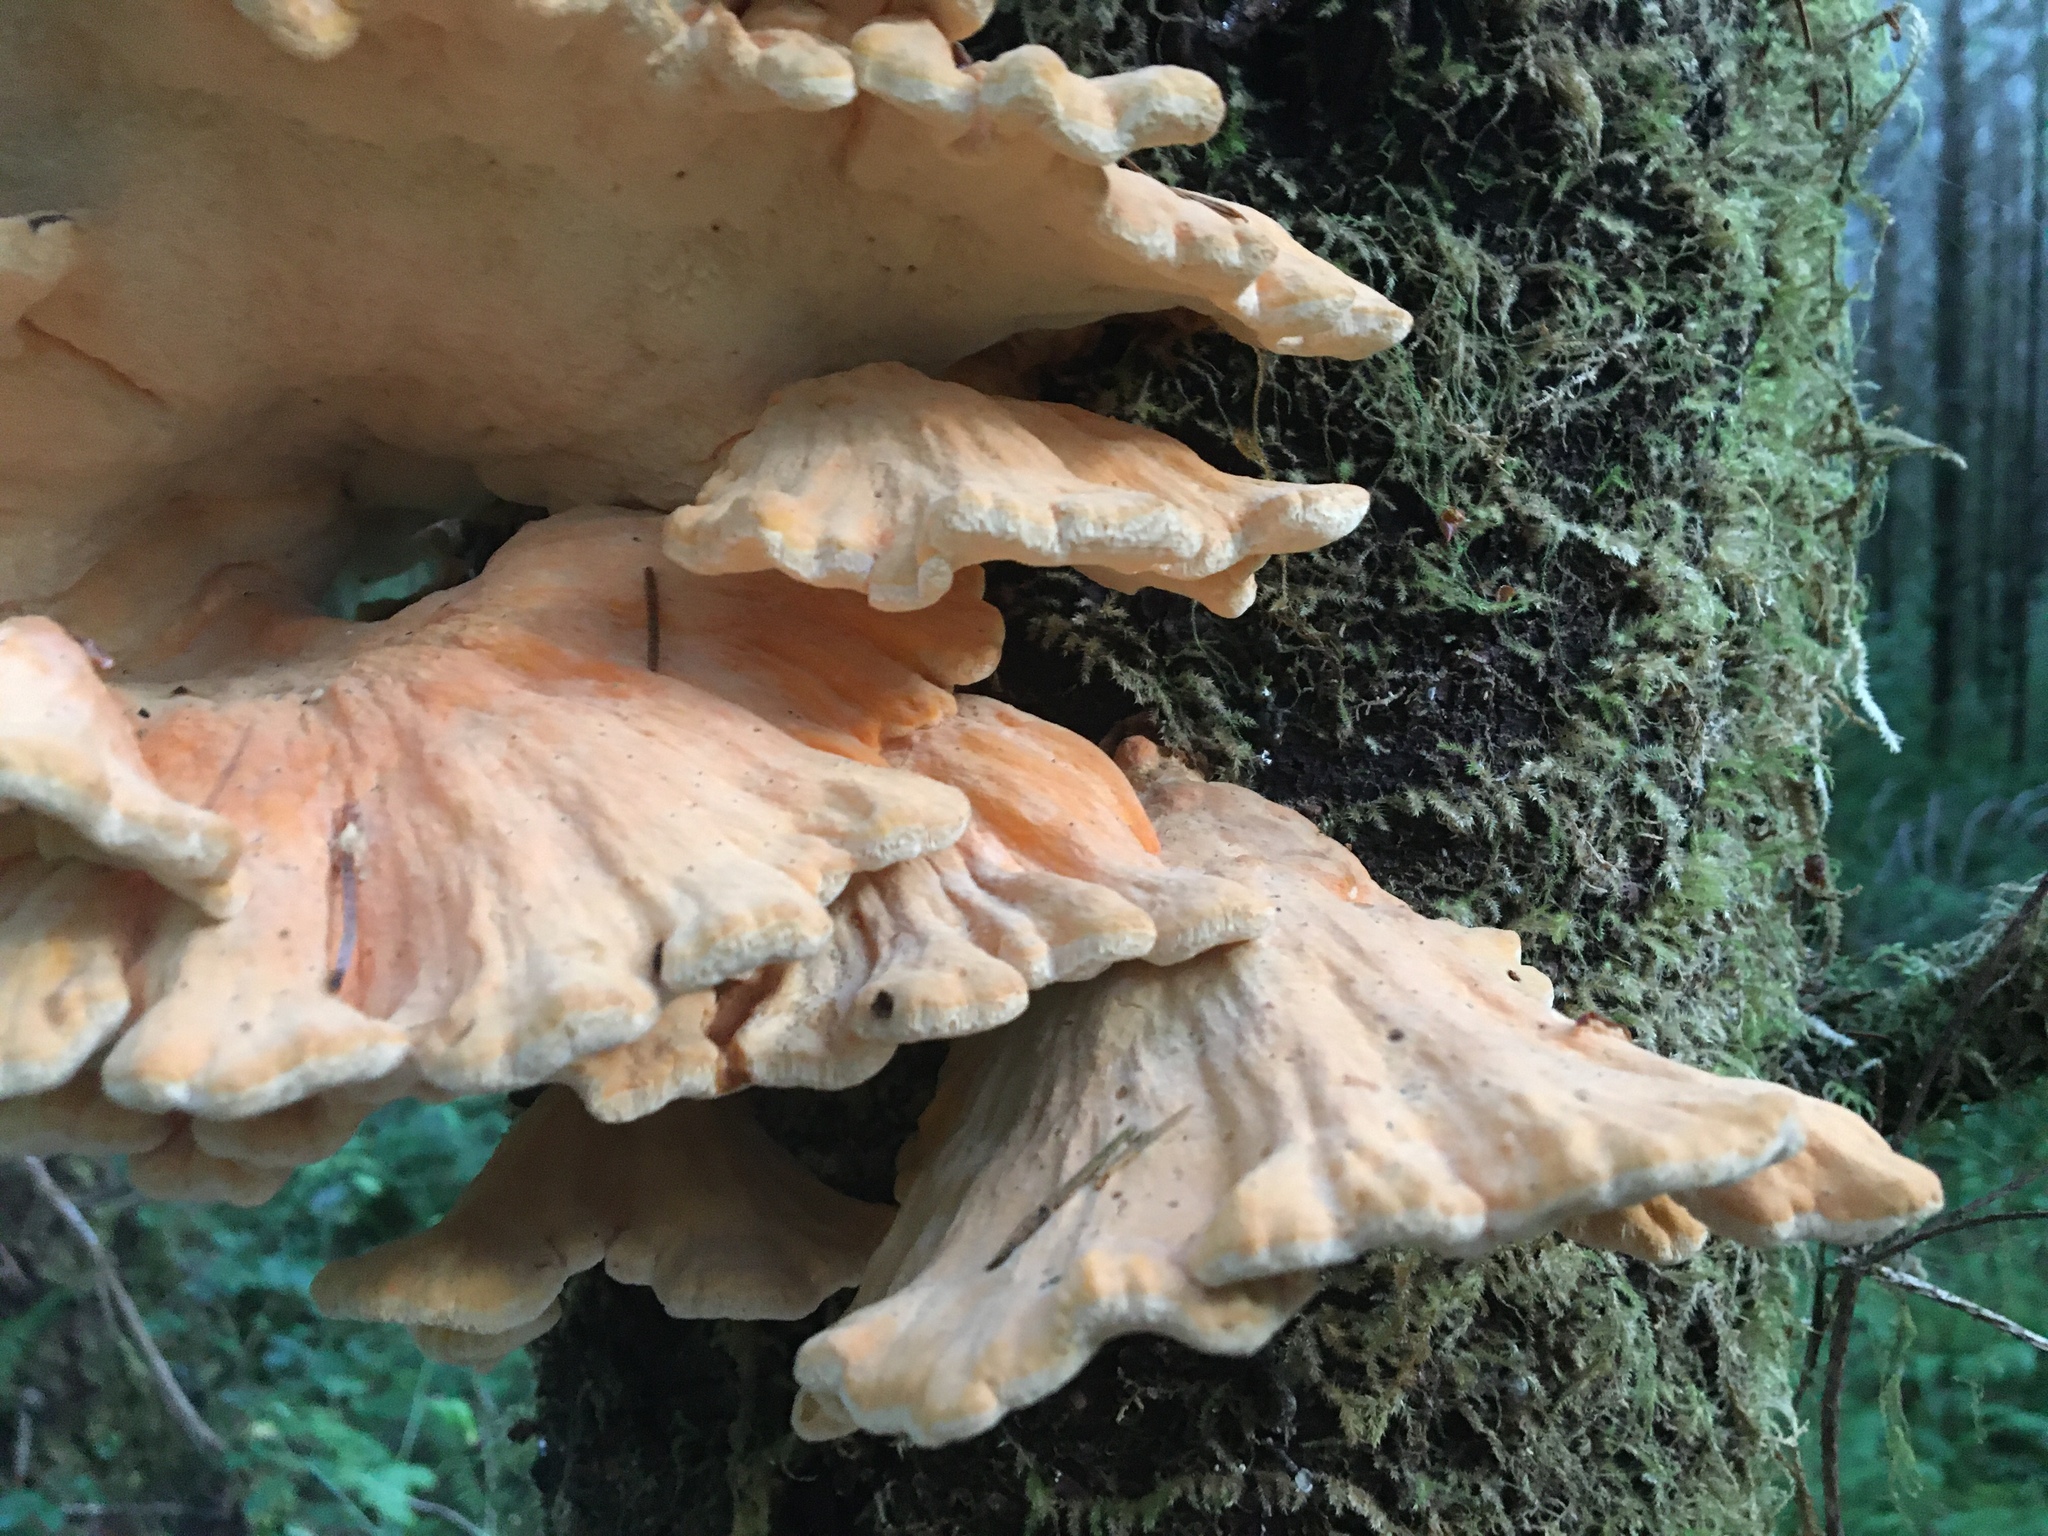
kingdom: Fungi
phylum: Basidiomycota
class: Agaricomycetes
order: Polyporales
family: Laetiporaceae
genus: Laetiporus
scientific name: Laetiporus conifericola
